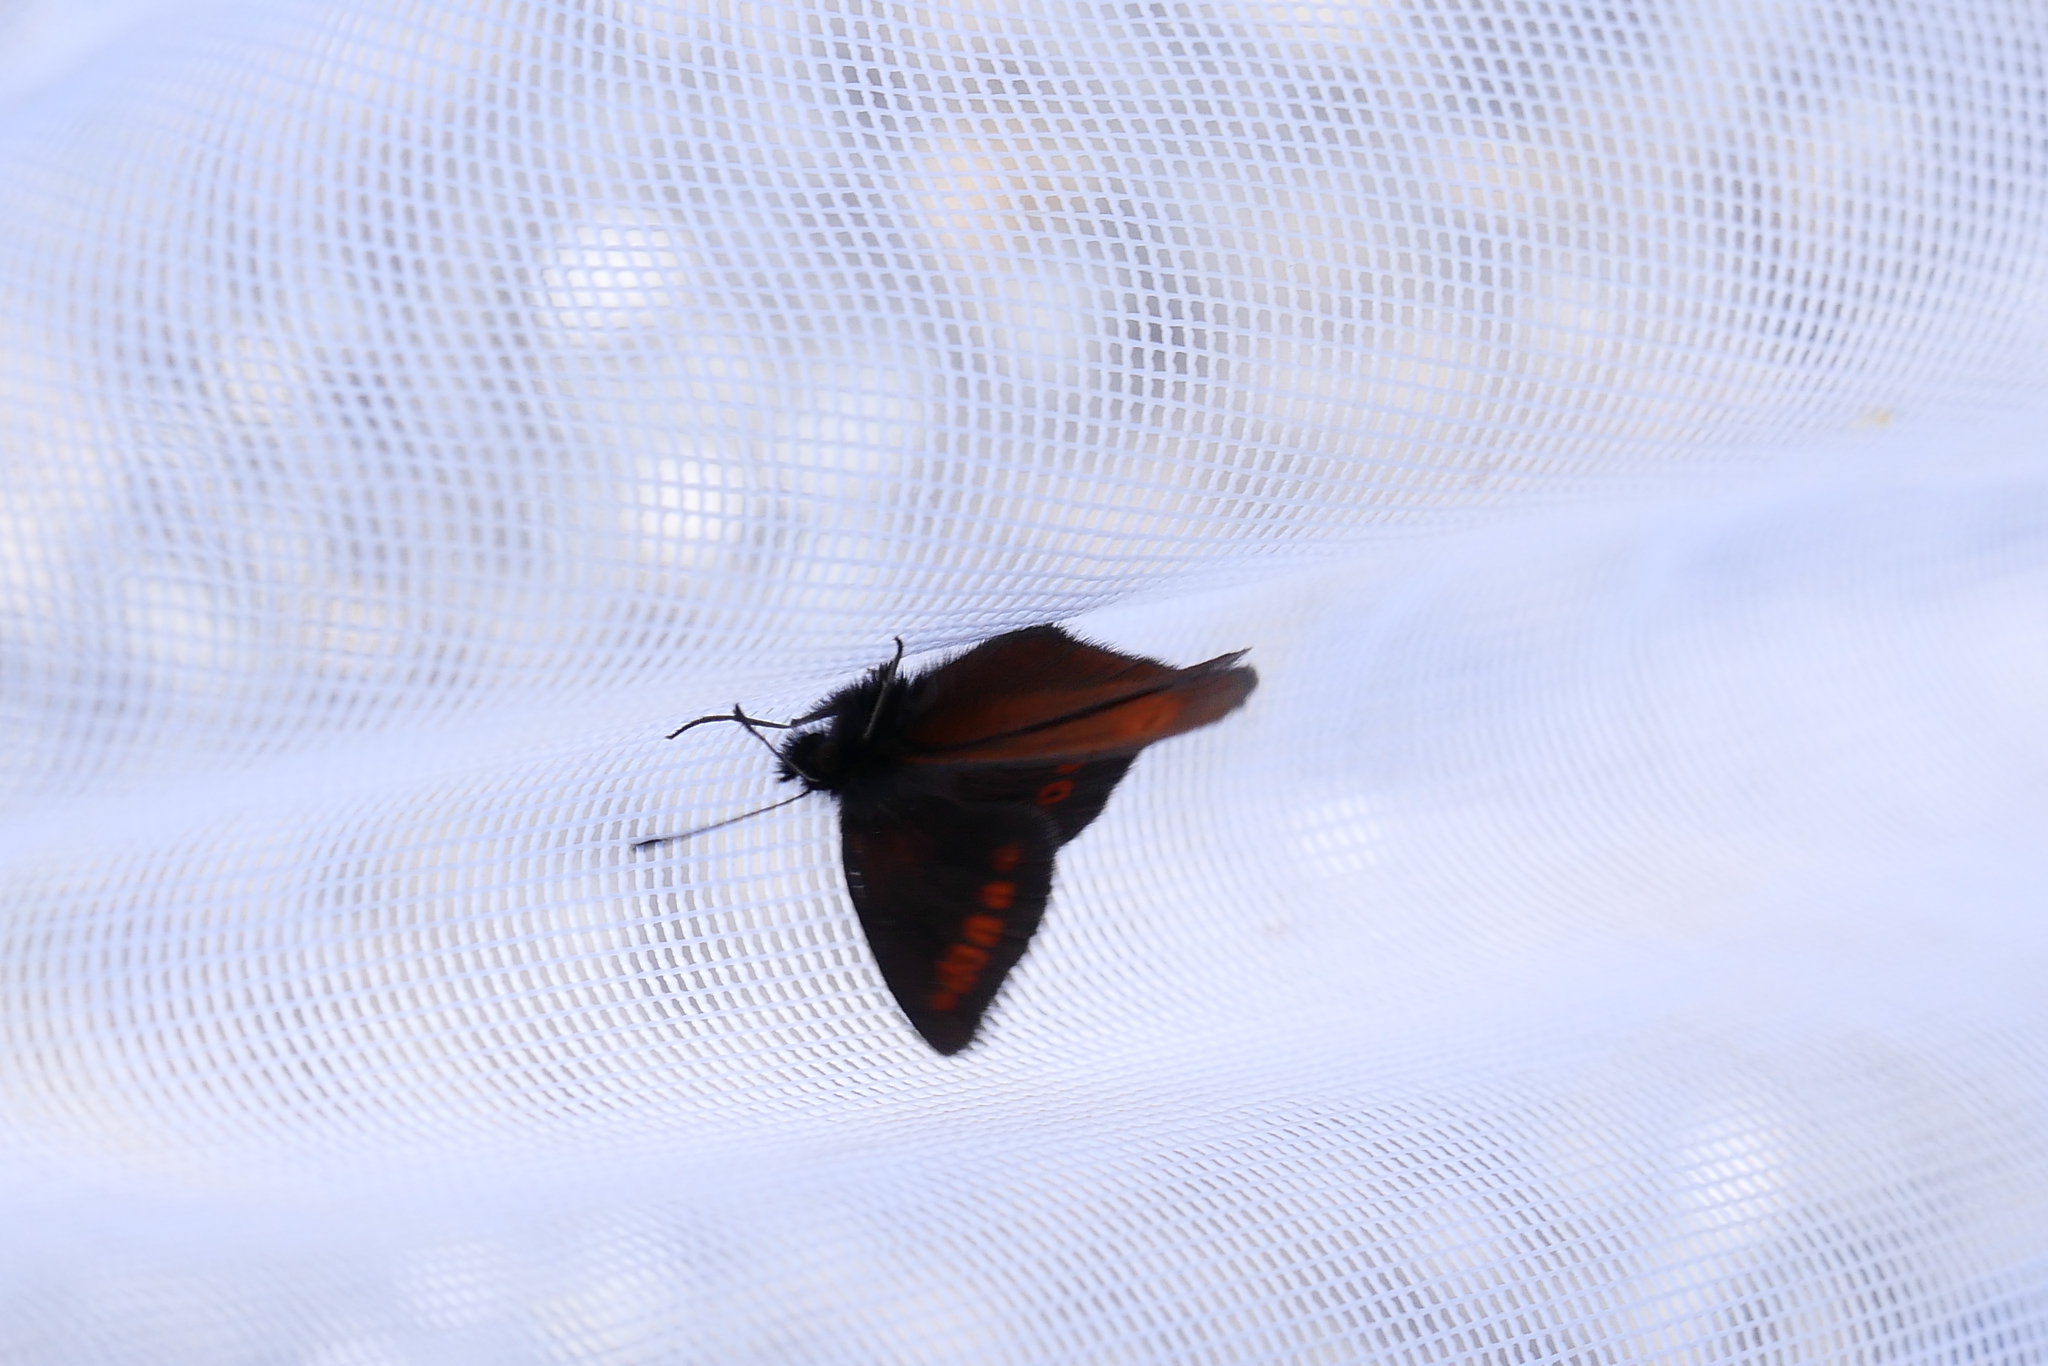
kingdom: Animalia
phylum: Arthropoda
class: Insecta
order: Lepidoptera
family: Nymphalidae
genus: Erebia
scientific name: Erebia melampus
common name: Lesser mountain ringlet
